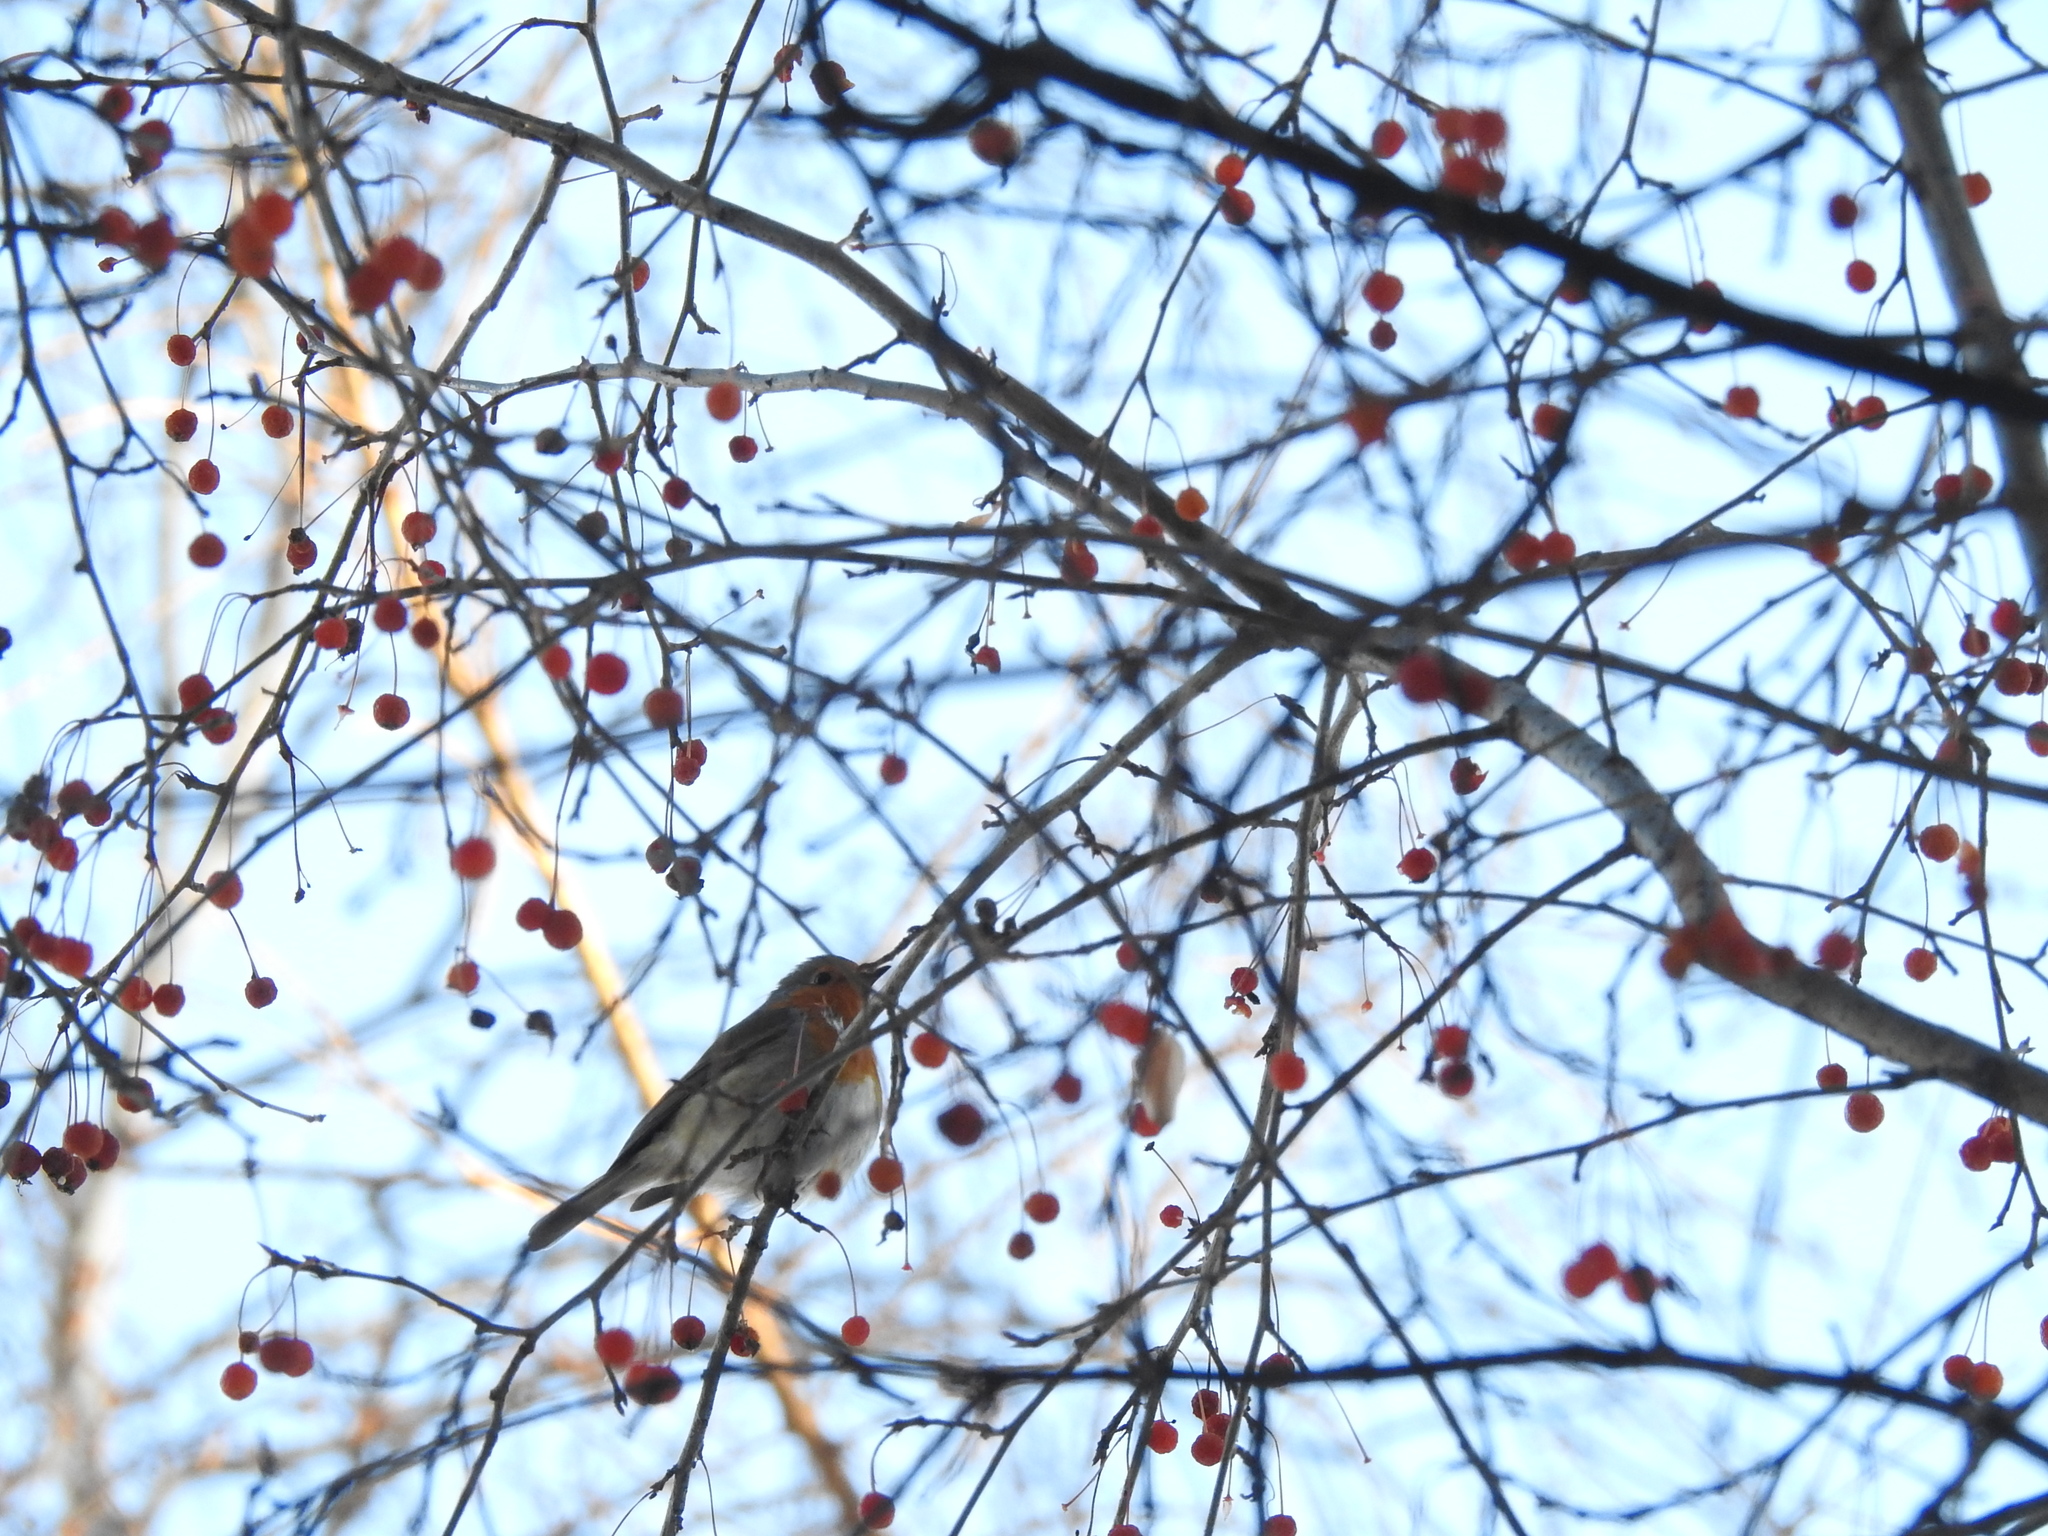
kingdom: Animalia
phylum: Chordata
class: Aves
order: Passeriformes
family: Muscicapidae
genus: Erithacus
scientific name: Erithacus rubecula
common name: European robin
